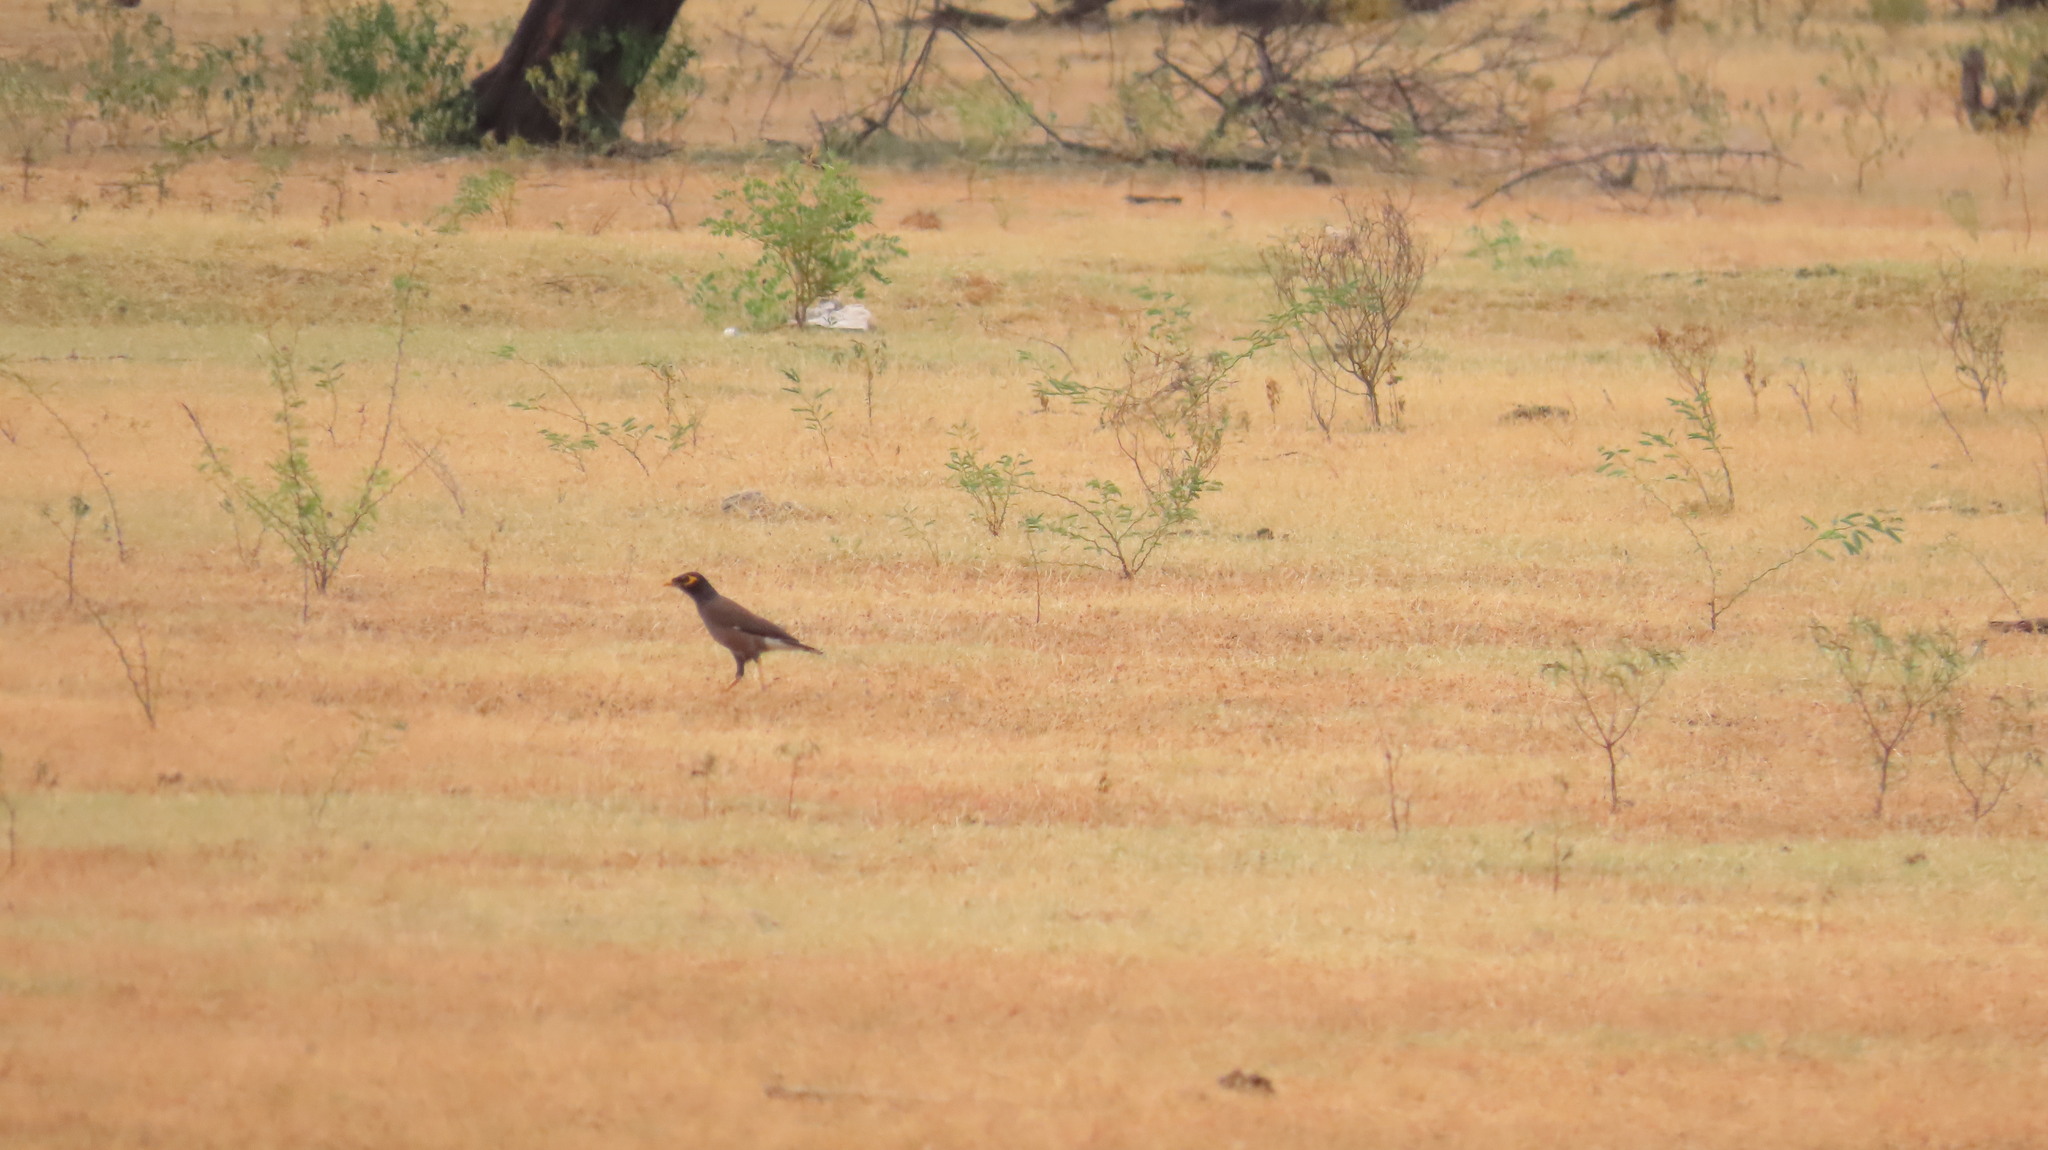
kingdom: Animalia
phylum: Chordata
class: Aves
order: Passeriformes
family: Sturnidae
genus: Acridotheres
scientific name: Acridotheres tristis
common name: Common myna
